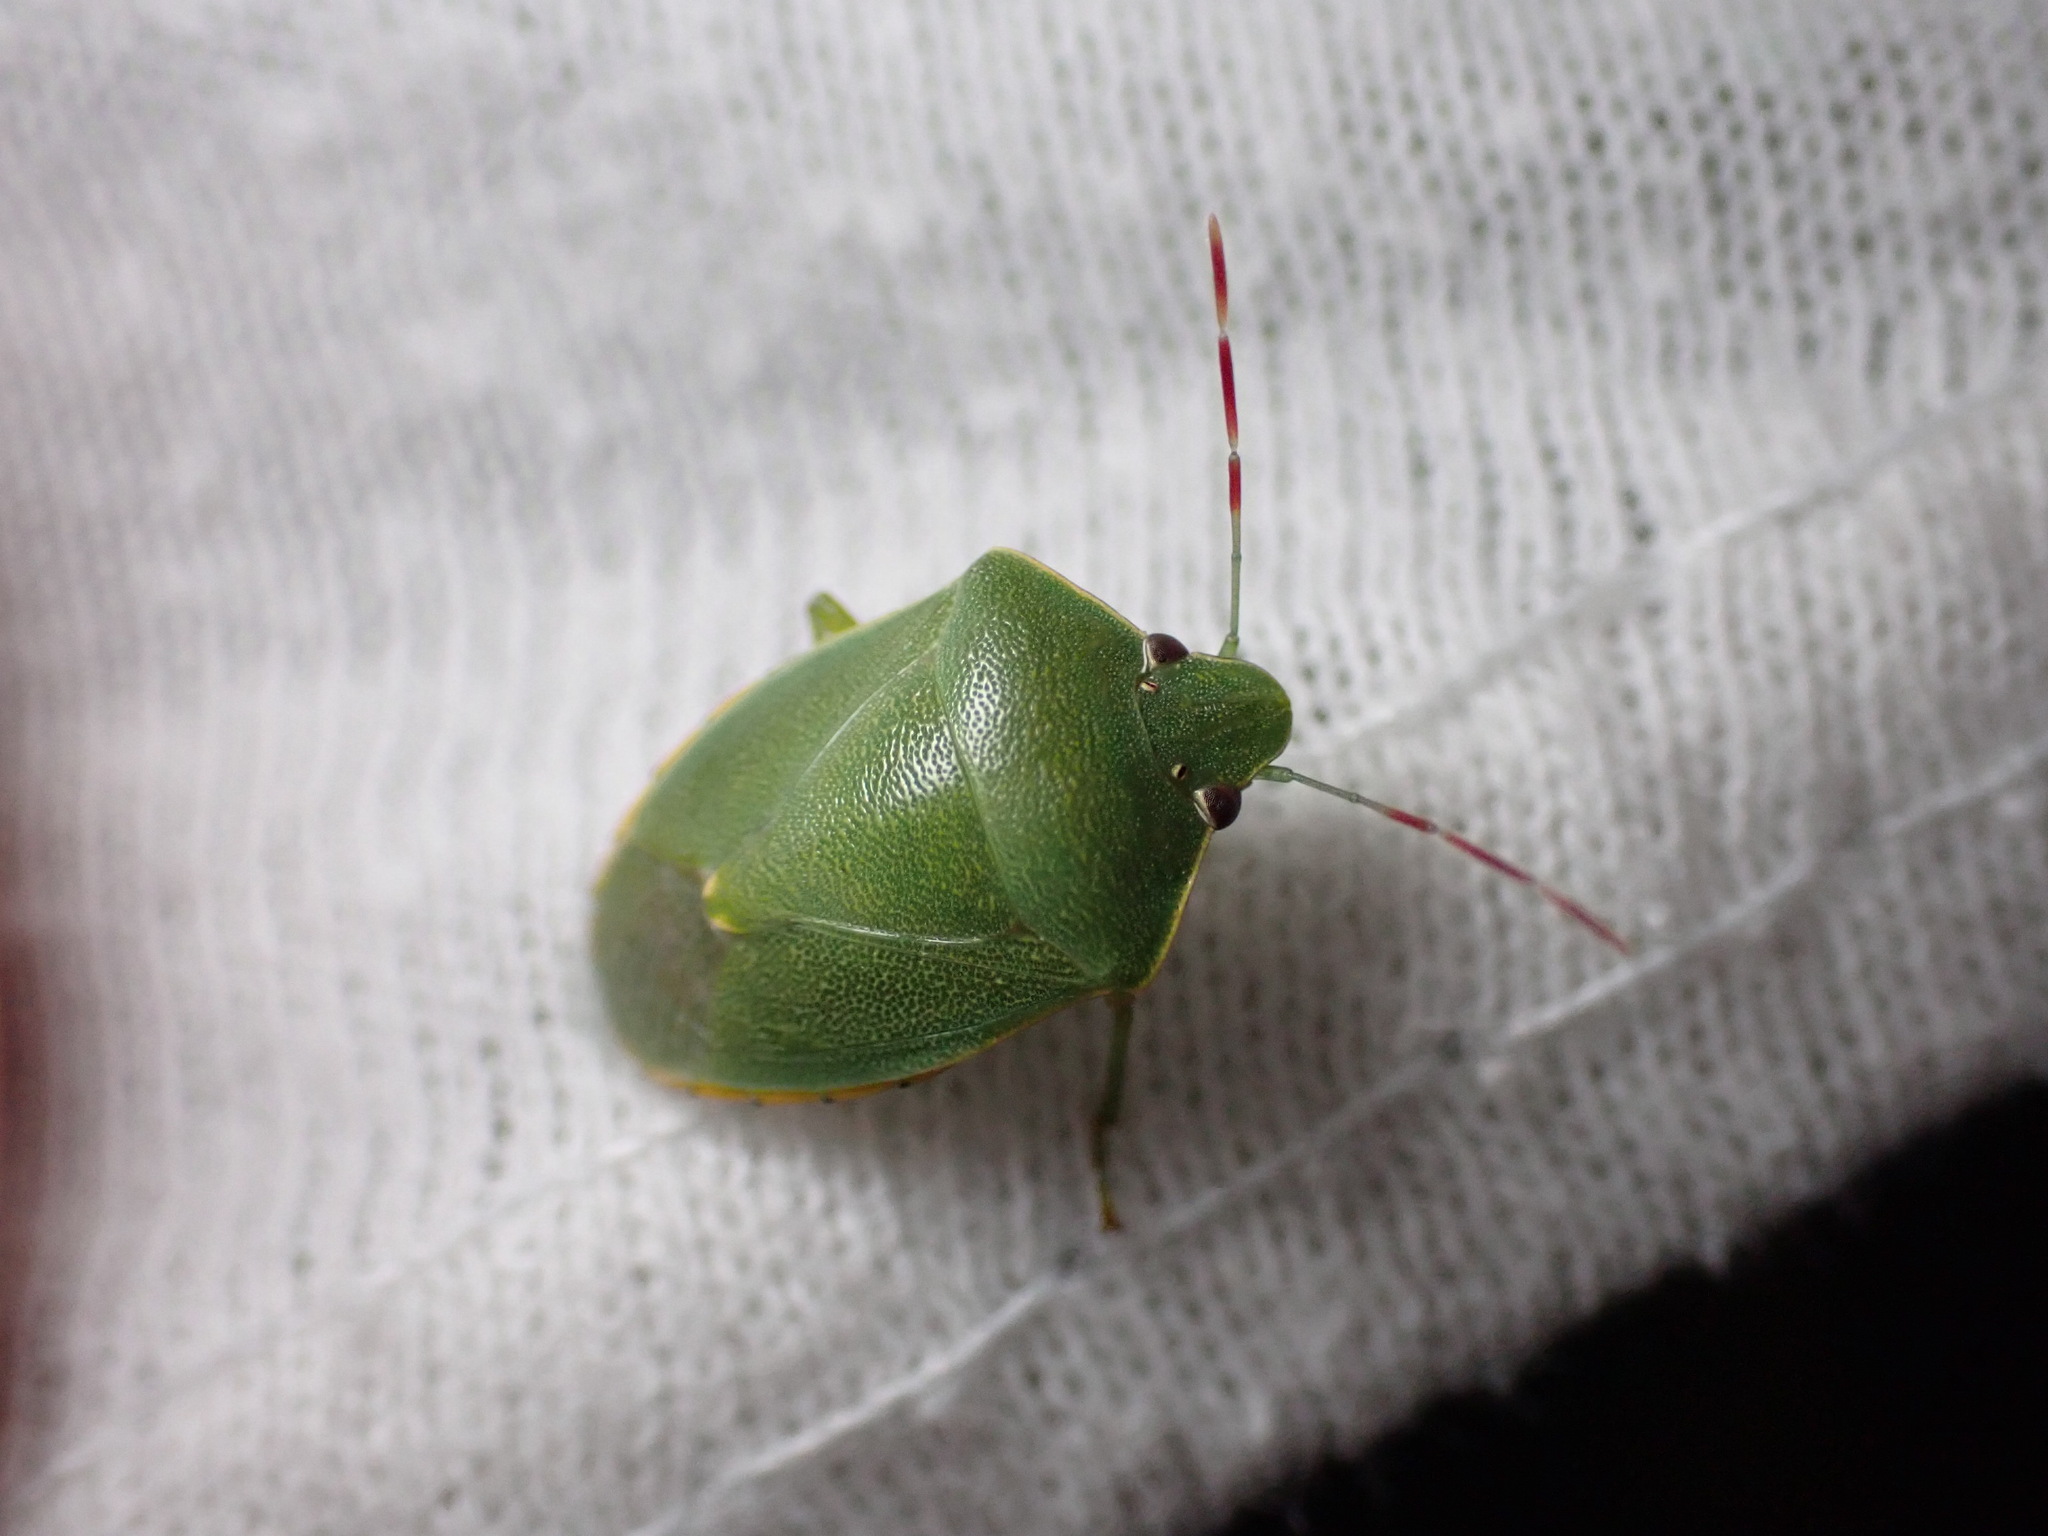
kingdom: Animalia
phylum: Arthropoda
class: Insecta
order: Hemiptera
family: Pentatomidae
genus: Acrosternum
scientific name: Acrosternum heegeri
